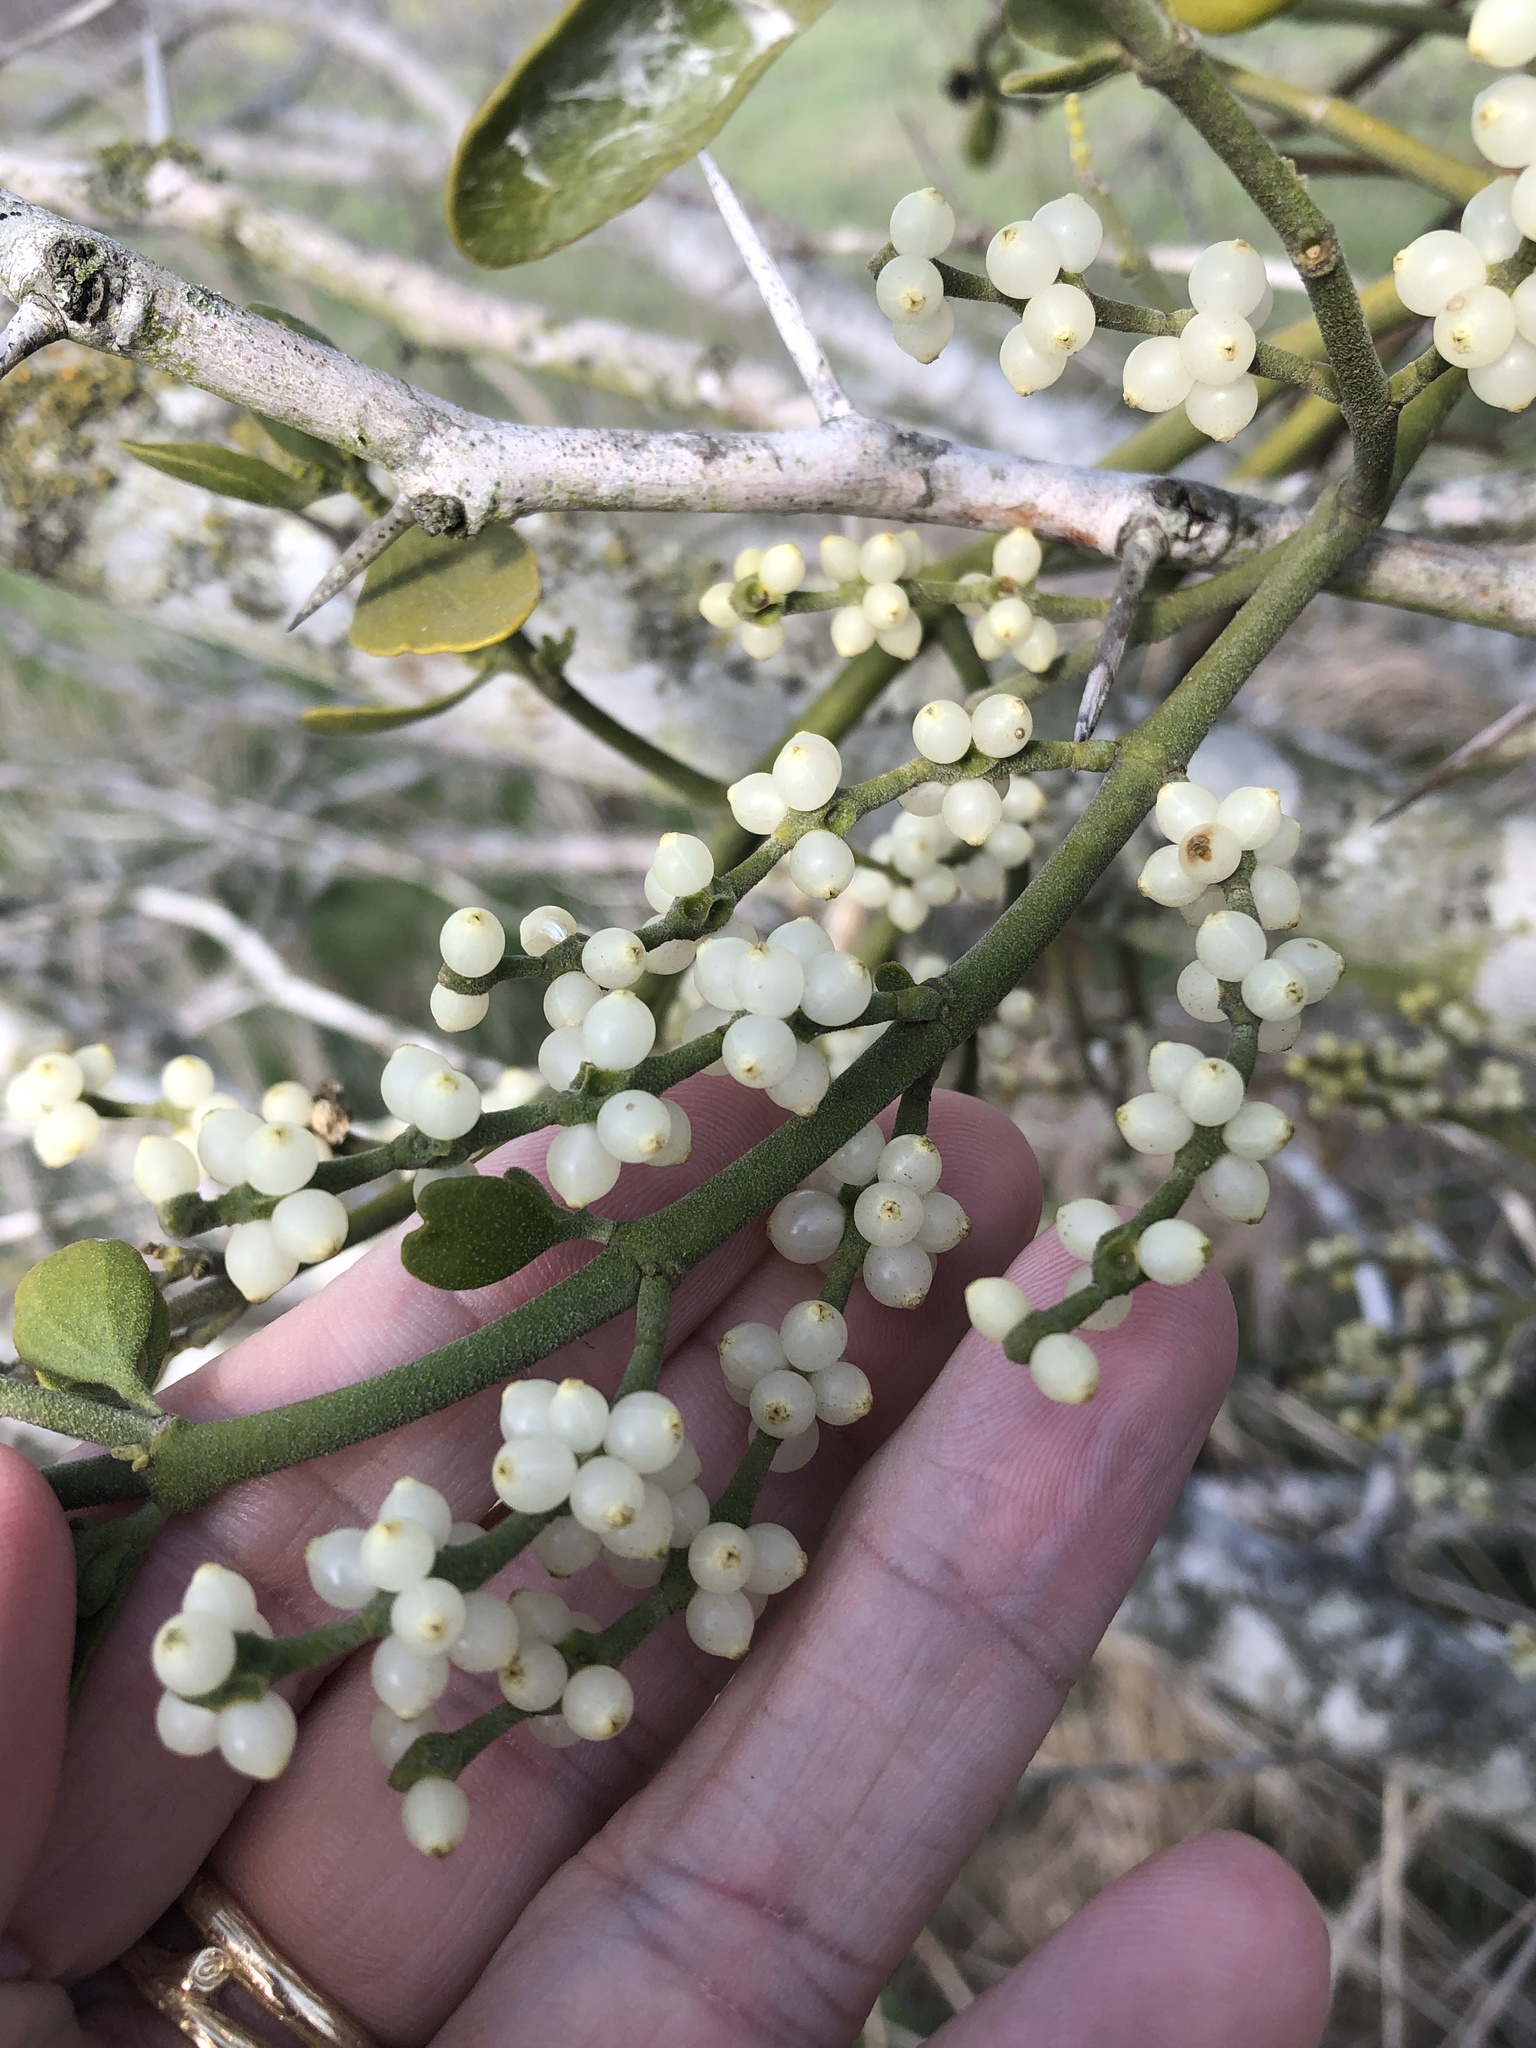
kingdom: Plantae
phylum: Tracheophyta
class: Magnoliopsida
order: Santalales
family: Viscaceae
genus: Phoradendron
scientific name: Phoradendron leucarpum
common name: Pacific mistletoe
